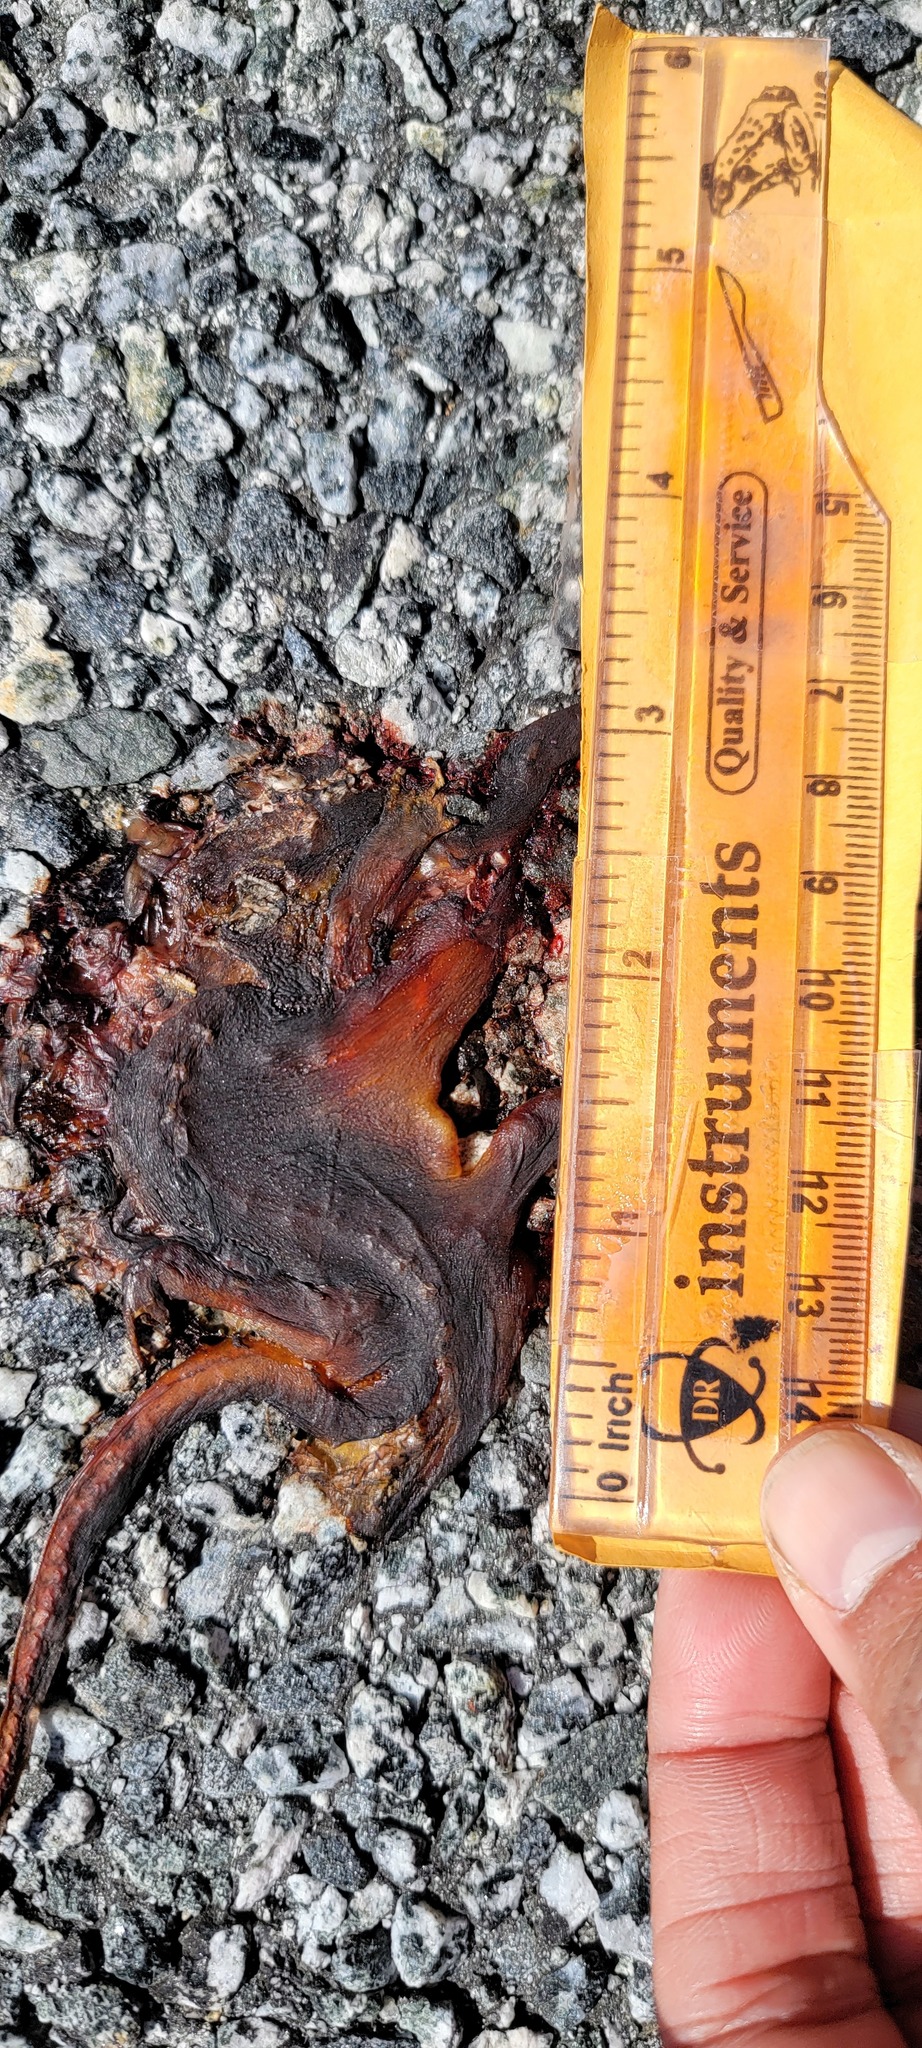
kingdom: Animalia
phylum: Chordata
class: Amphibia
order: Caudata
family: Salamandridae
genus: Taricha
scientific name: Taricha
